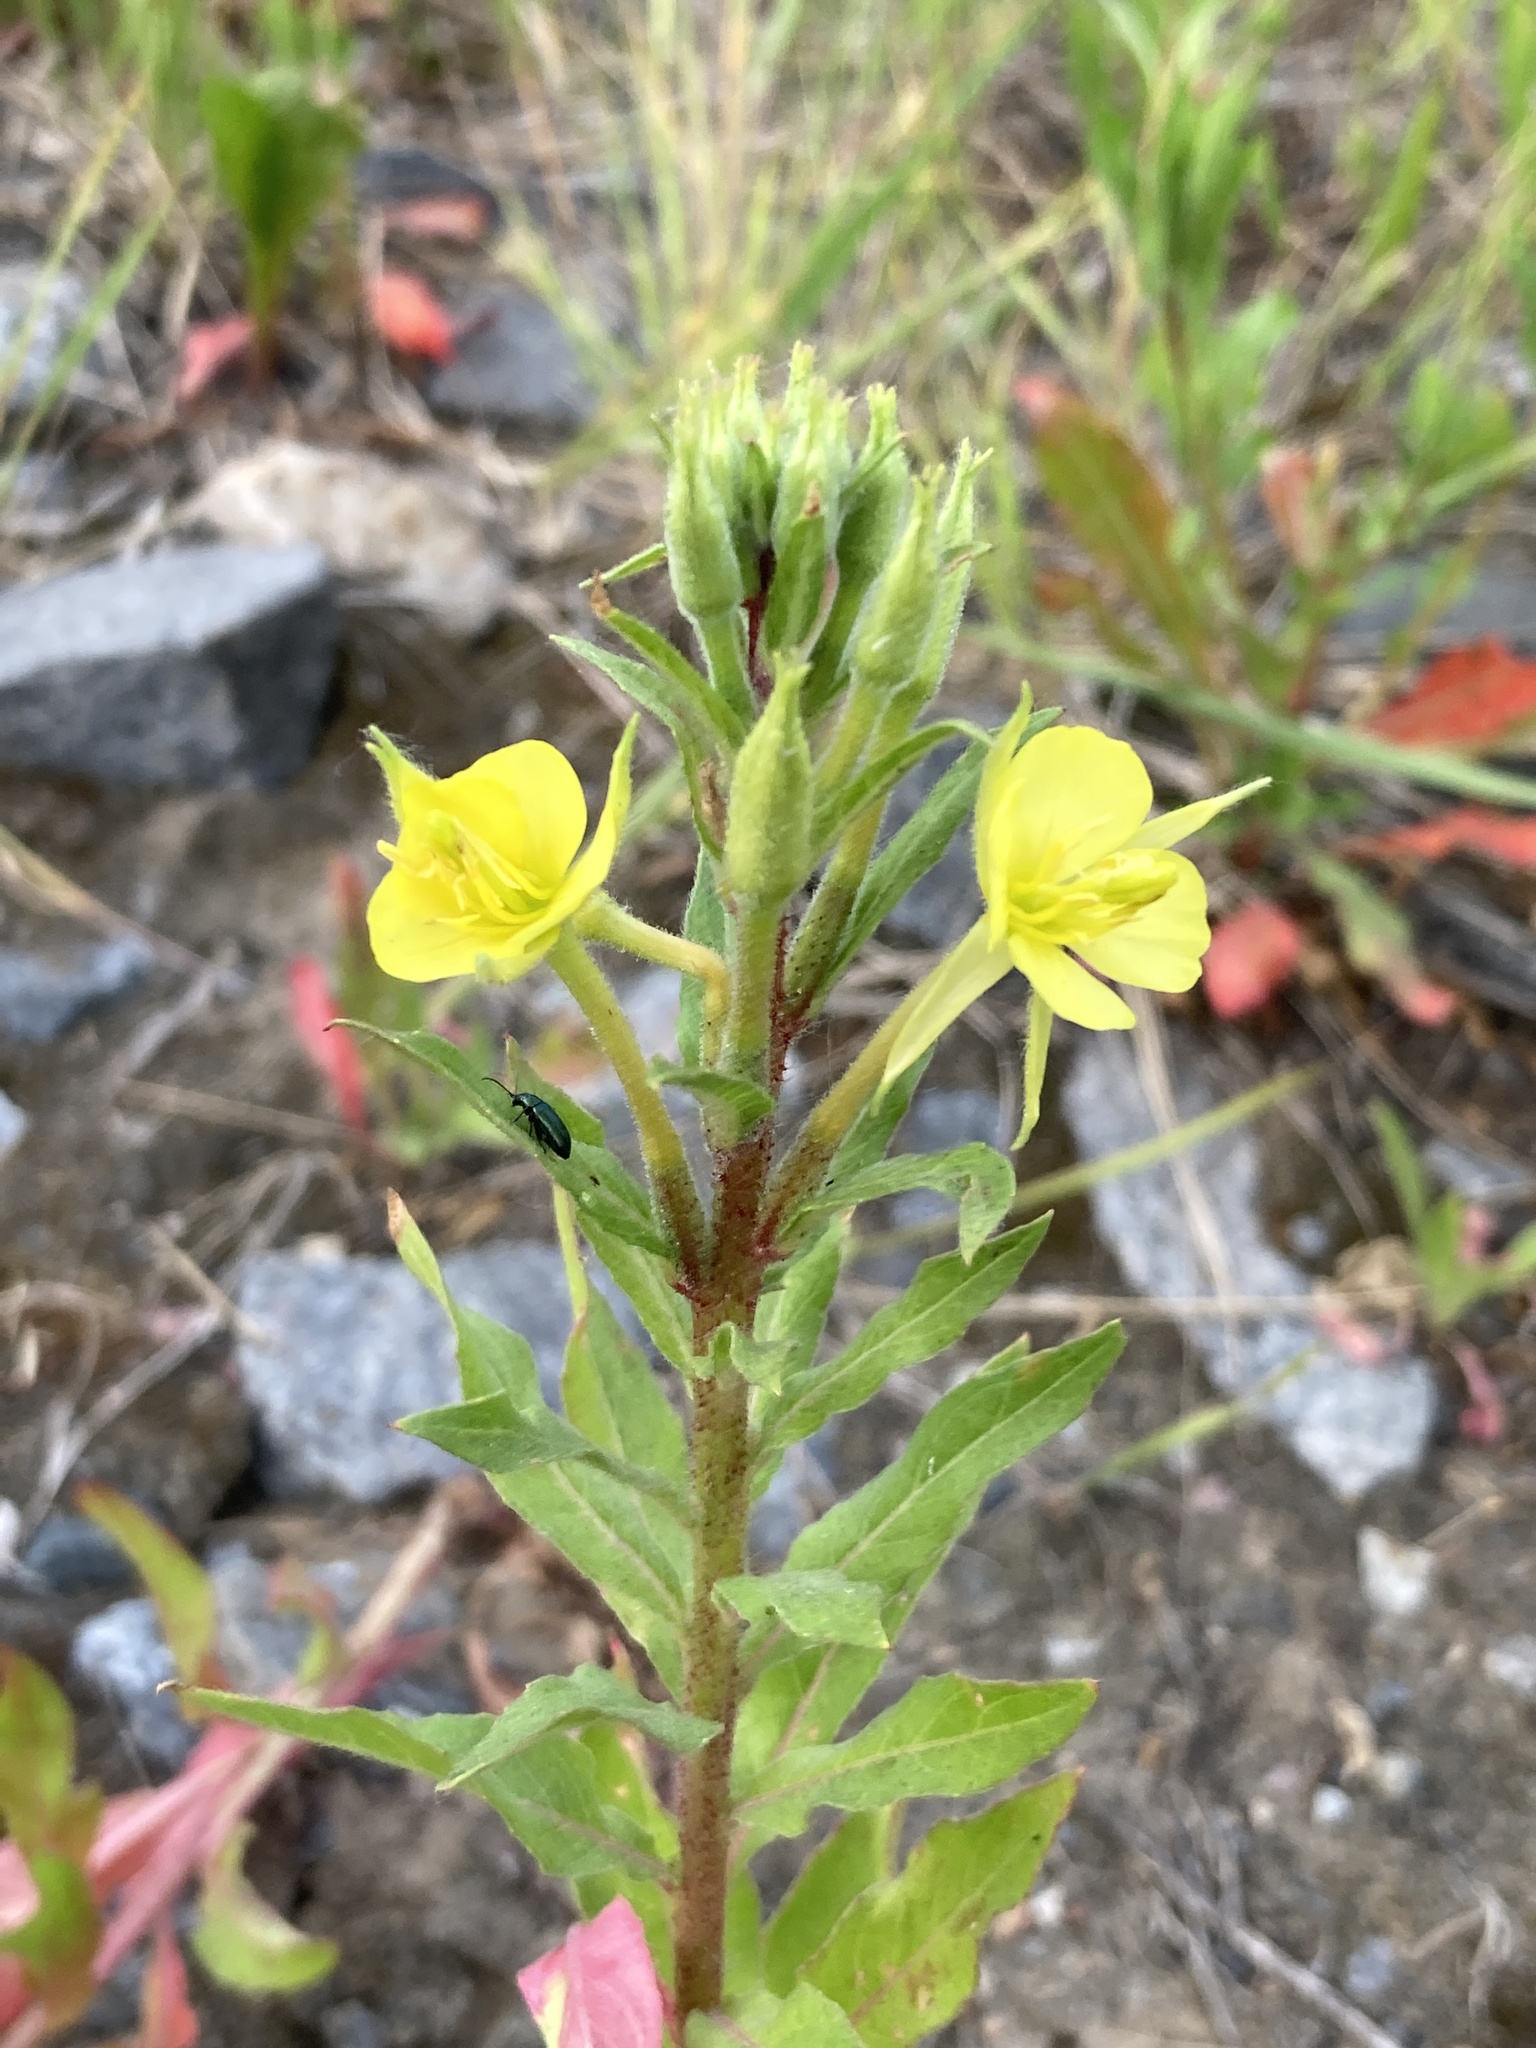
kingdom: Plantae
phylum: Tracheophyta
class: Magnoliopsida
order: Myrtales
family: Onagraceae
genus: Oenothera
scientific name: Oenothera rubricaulis
